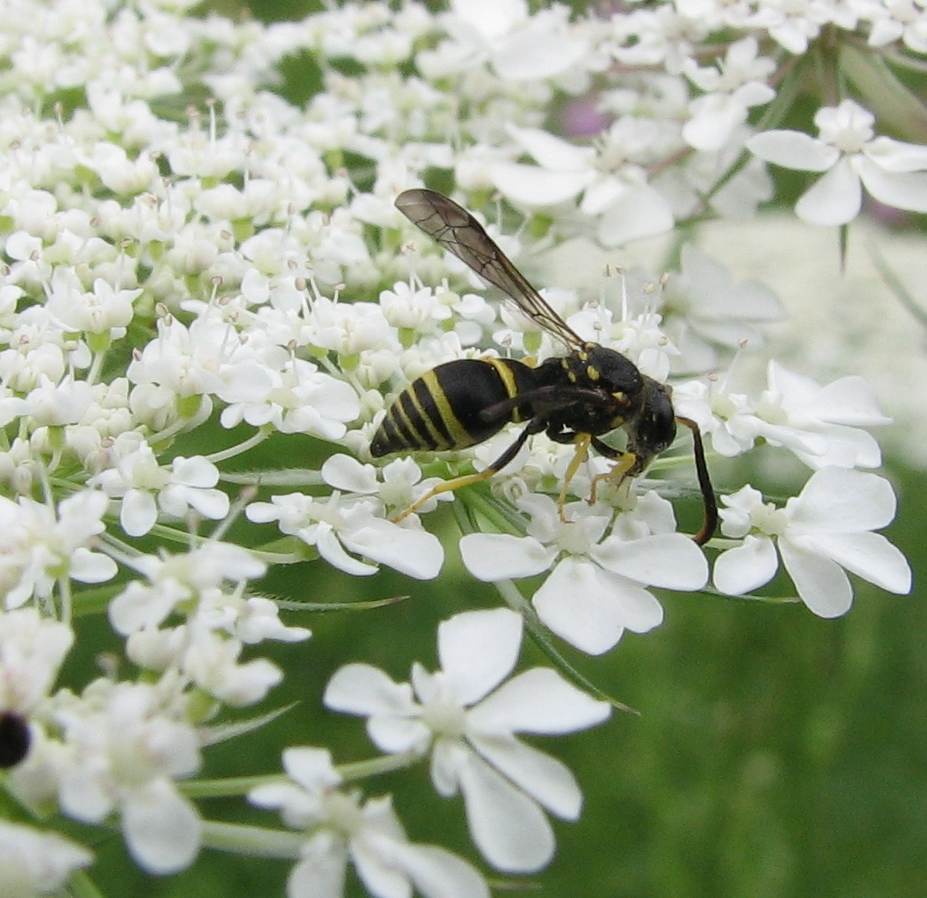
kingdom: Animalia
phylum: Arthropoda
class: Insecta
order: Hymenoptera
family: Vespidae
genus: Ancistrocerus
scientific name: Ancistrocerus catskill
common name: Vespid wasp
